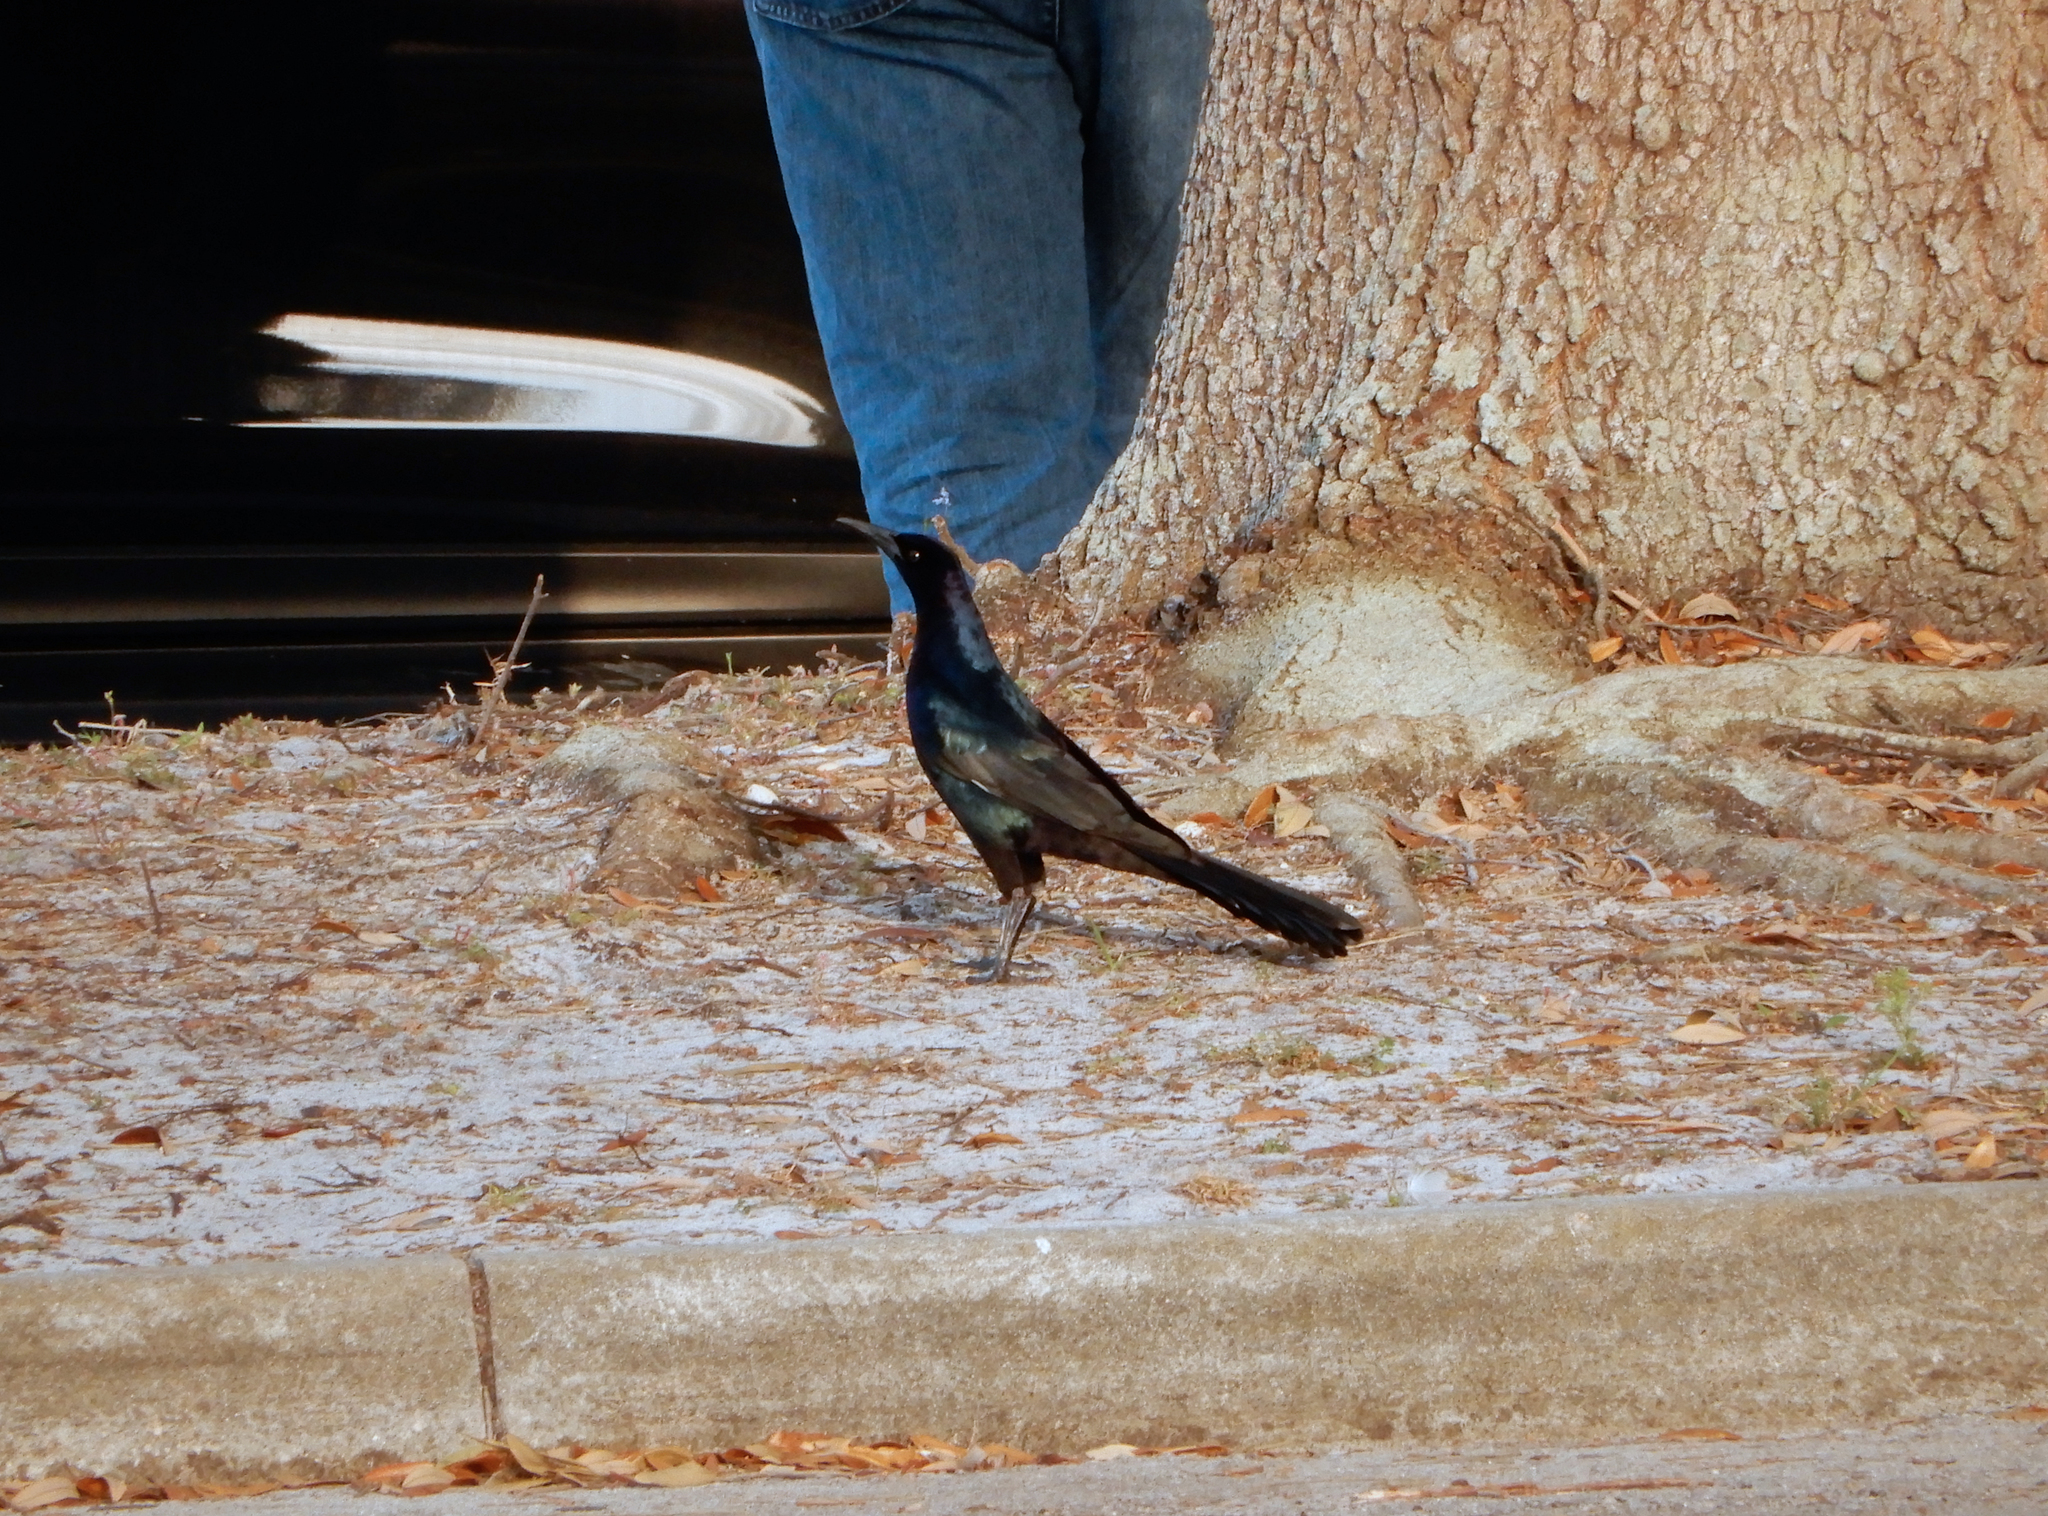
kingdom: Animalia
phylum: Chordata
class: Aves
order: Passeriformes
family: Icteridae
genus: Quiscalus
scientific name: Quiscalus major
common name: Boat-tailed grackle
